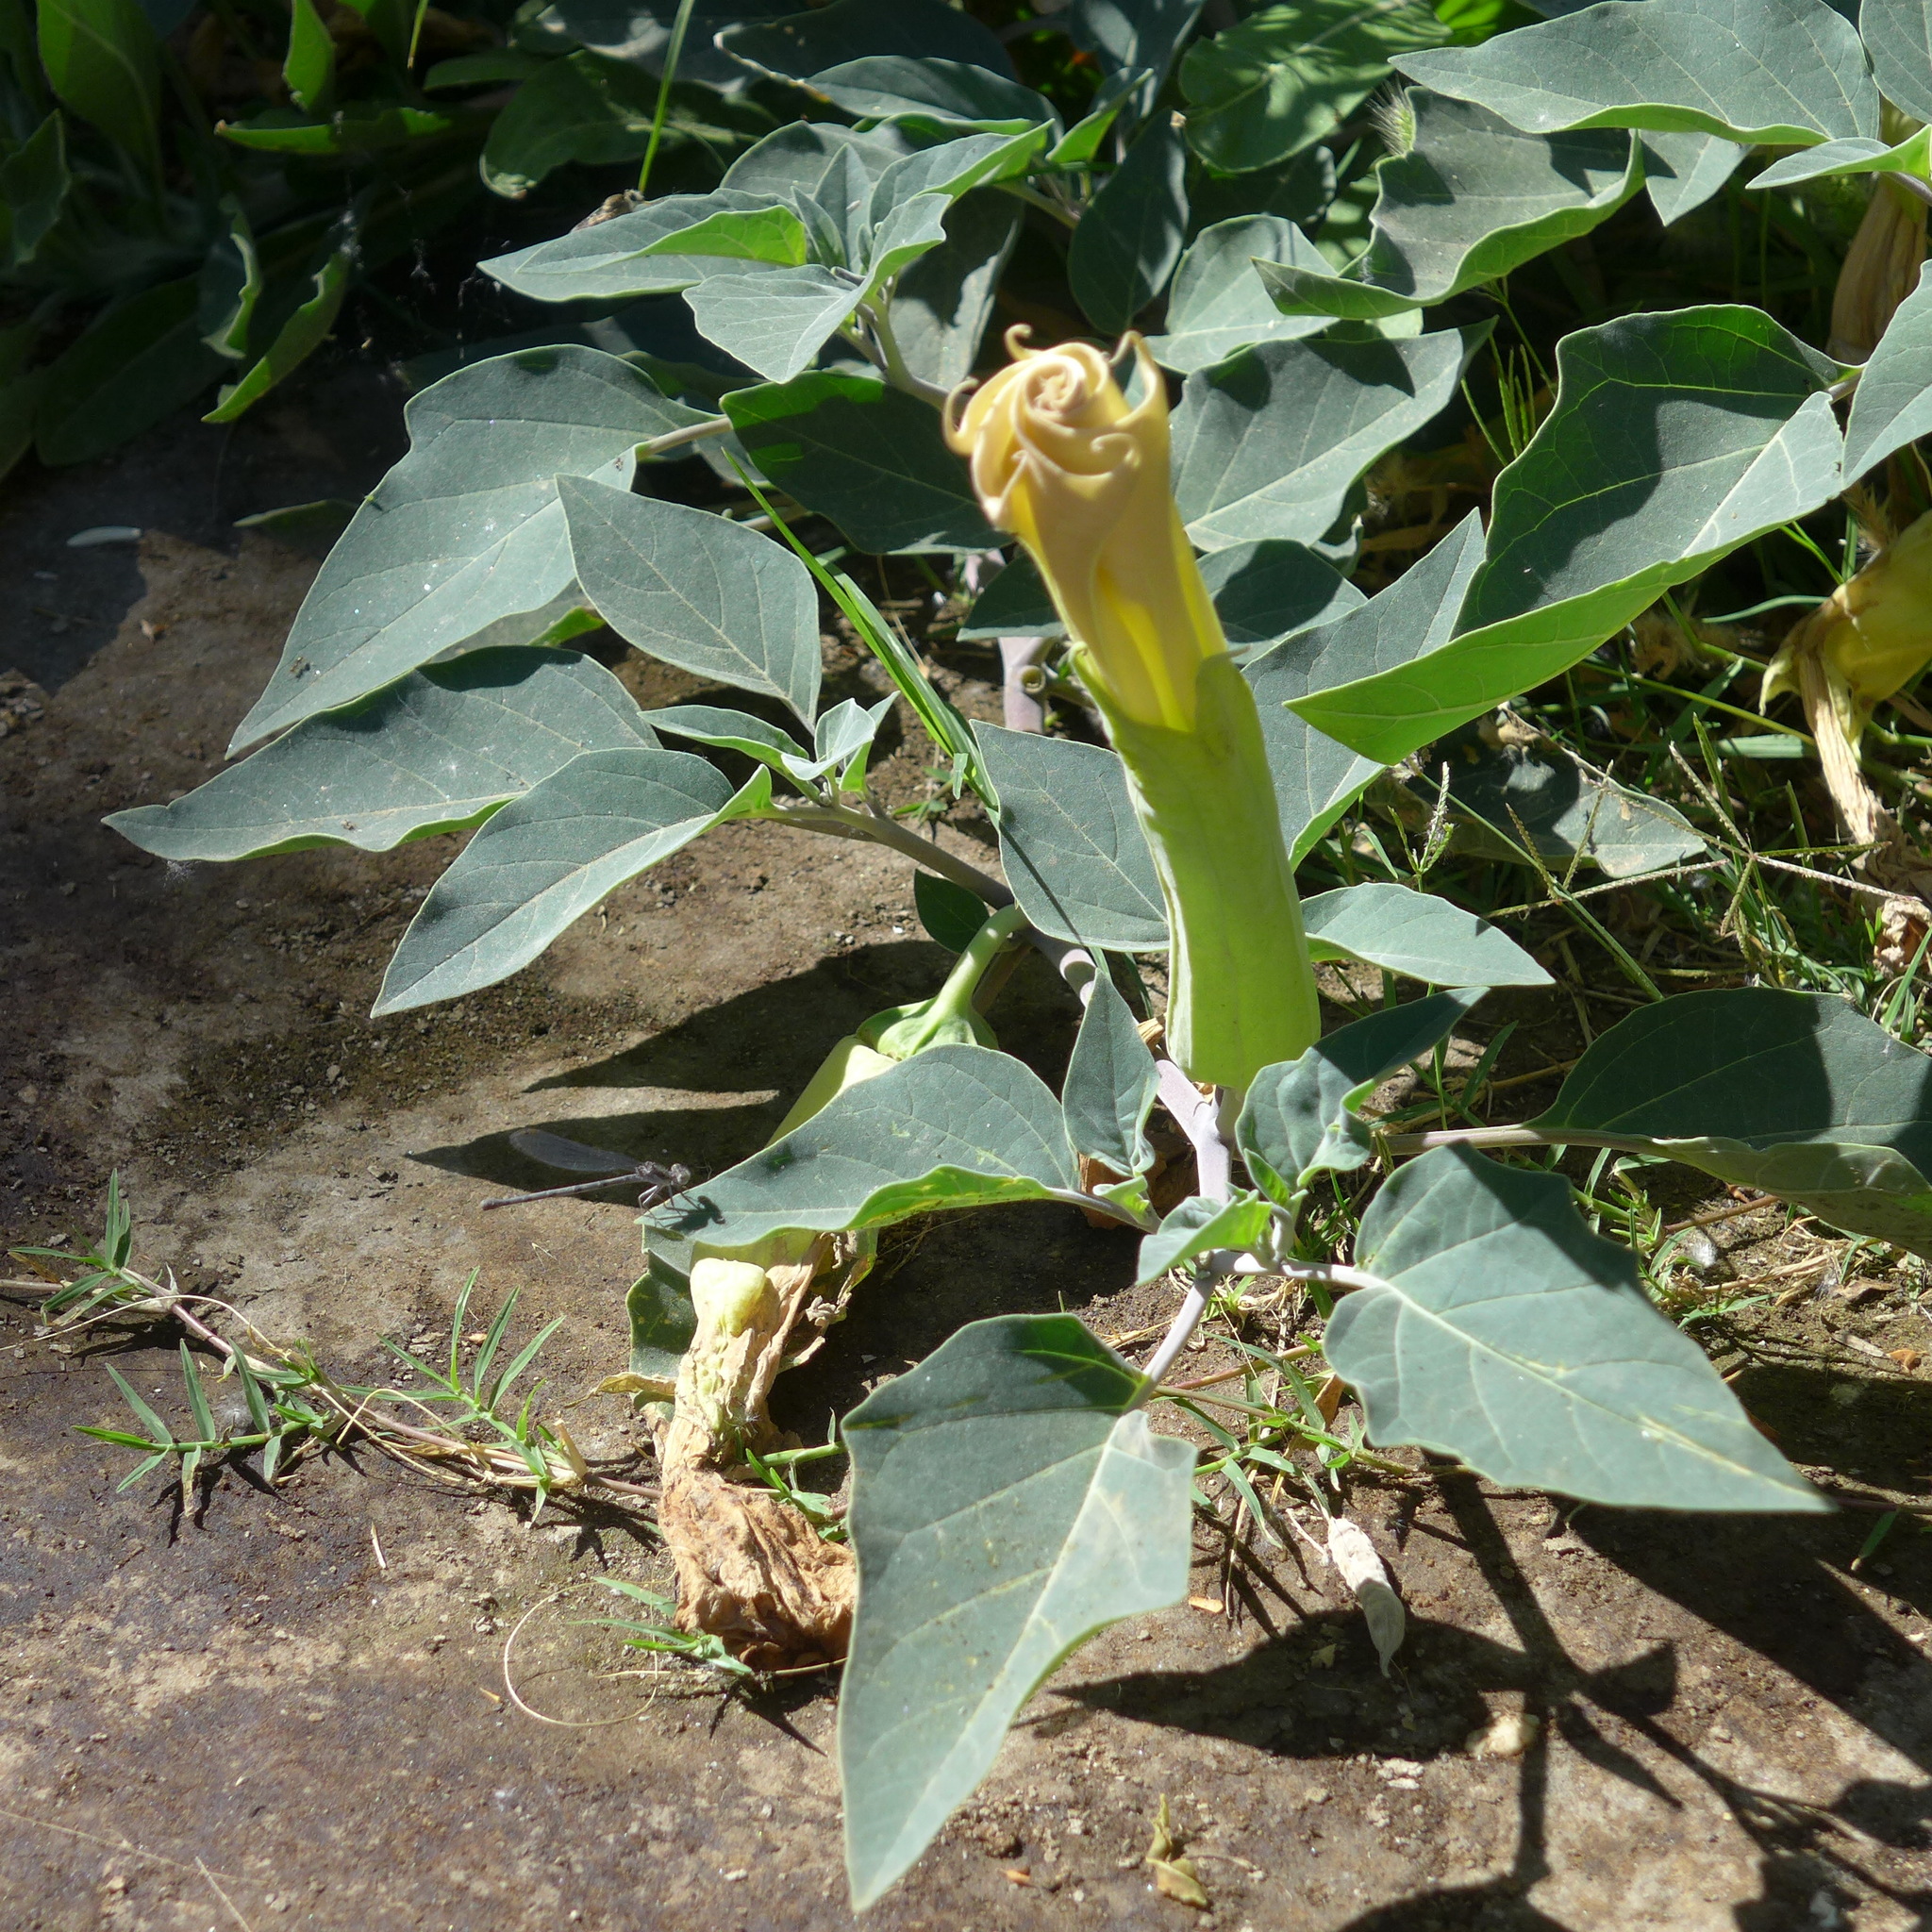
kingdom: Plantae
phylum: Tracheophyta
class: Magnoliopsida
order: Solanales
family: Solanaceae
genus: Datura
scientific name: Datura wrightii
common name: Sacred thorn-apple
